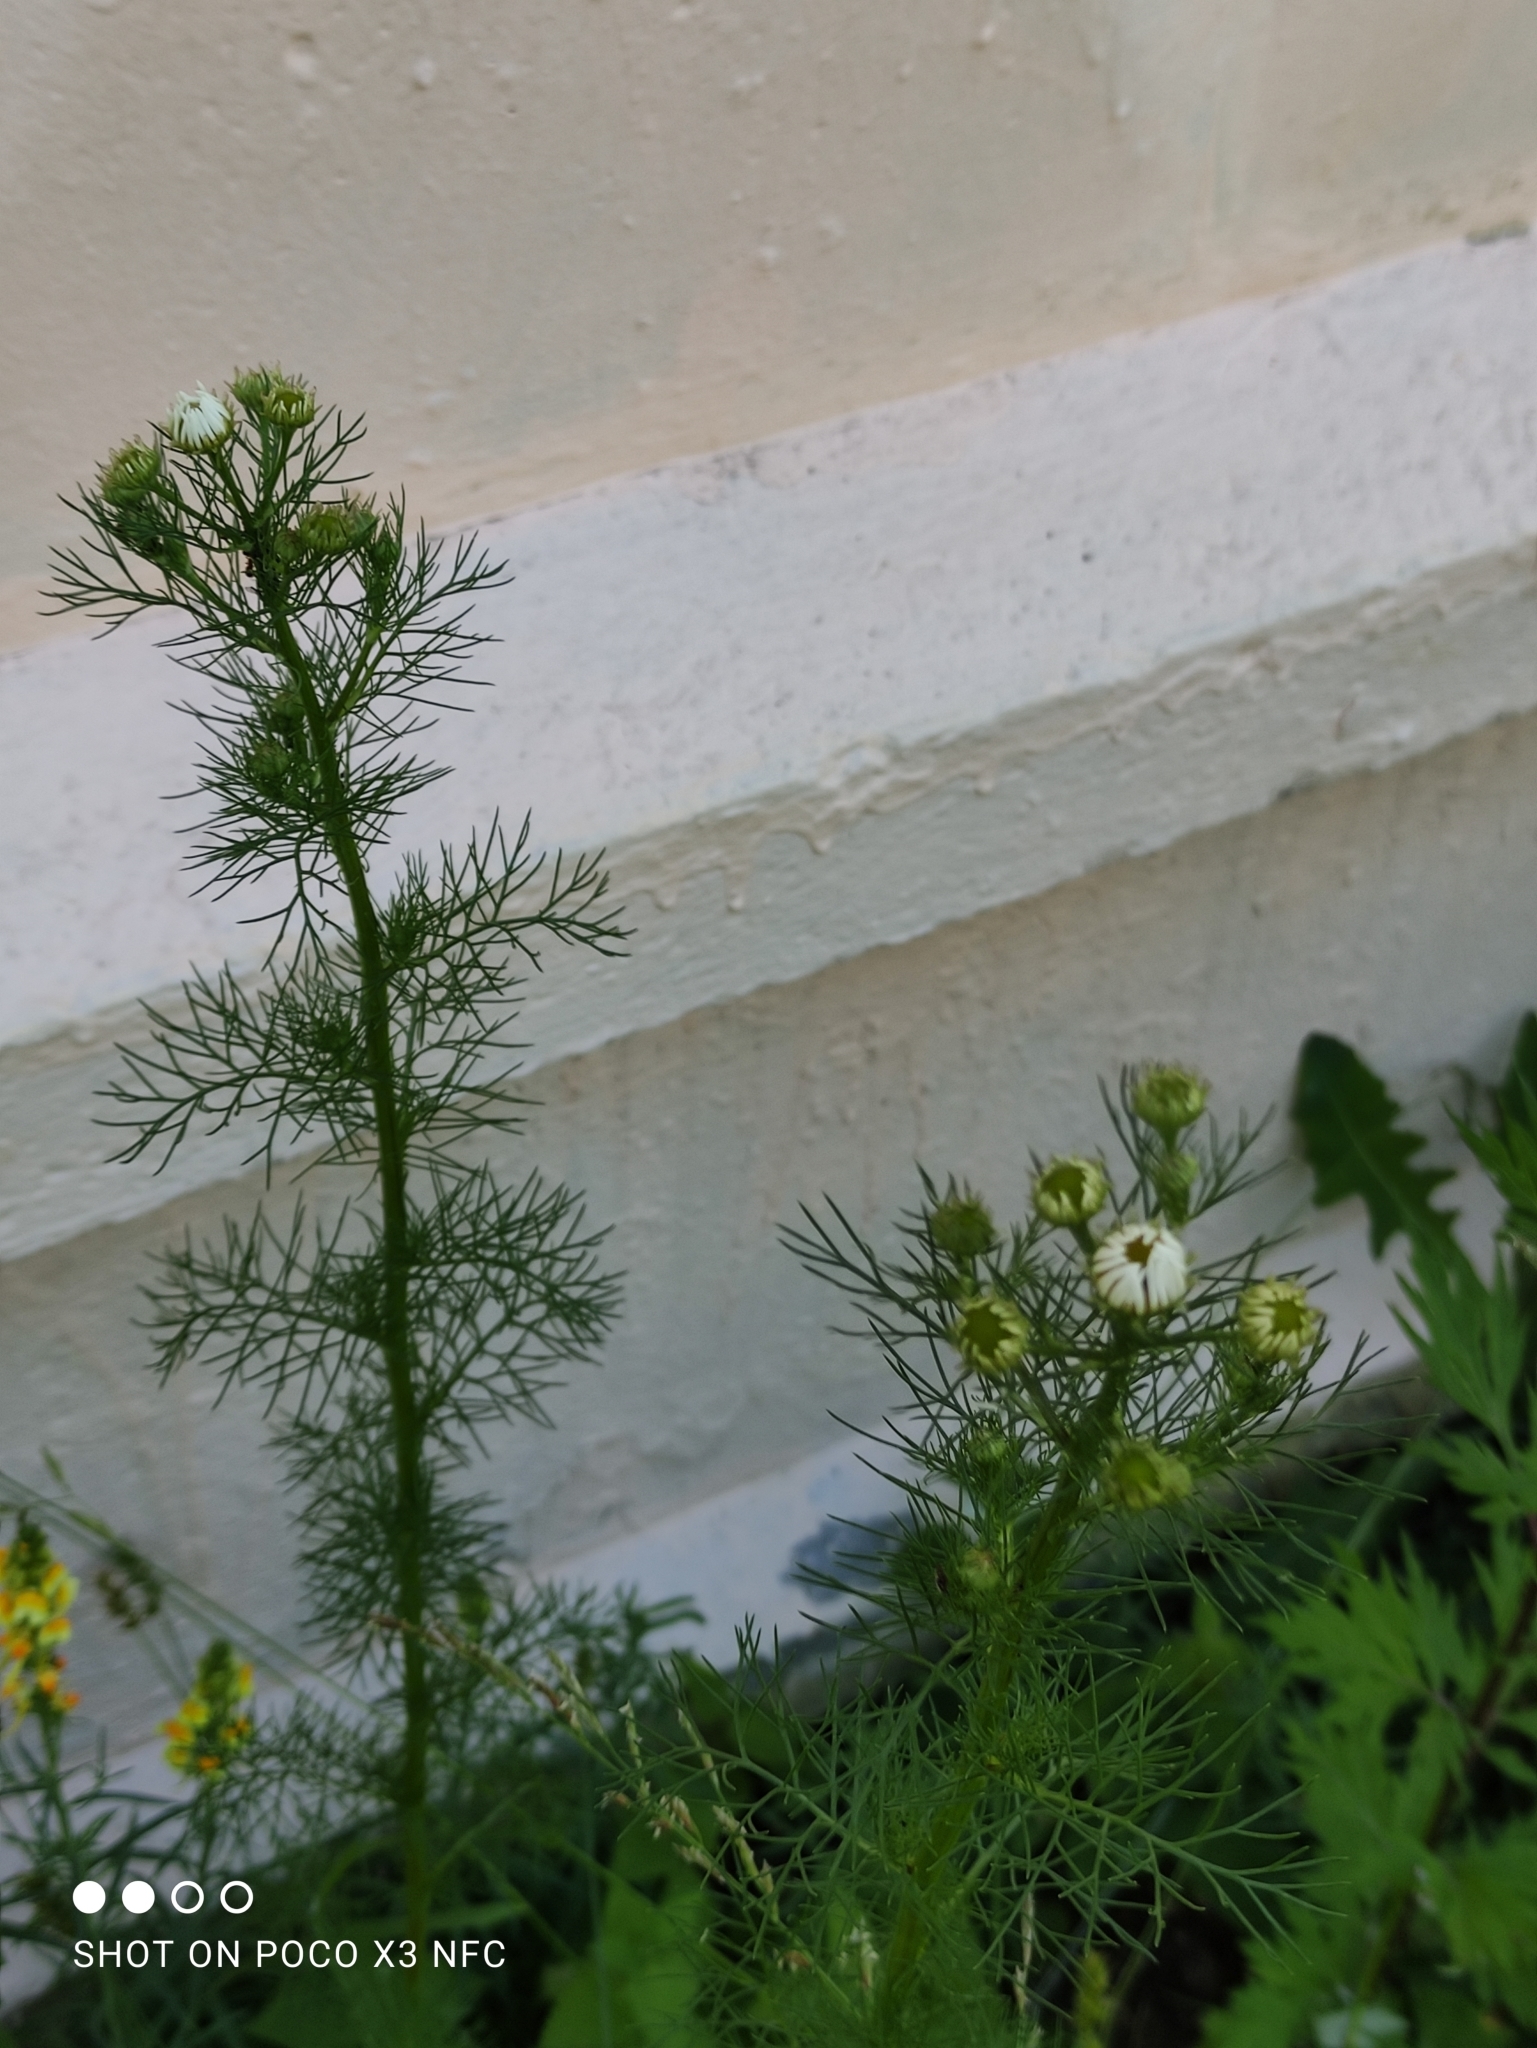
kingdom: Plantae
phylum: Tracheophyta
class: Magnoliopsida
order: Asterales
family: Asteraceae
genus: Tripleurospermum
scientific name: Tripleurospermum inodorum
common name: Scentless mayweed
